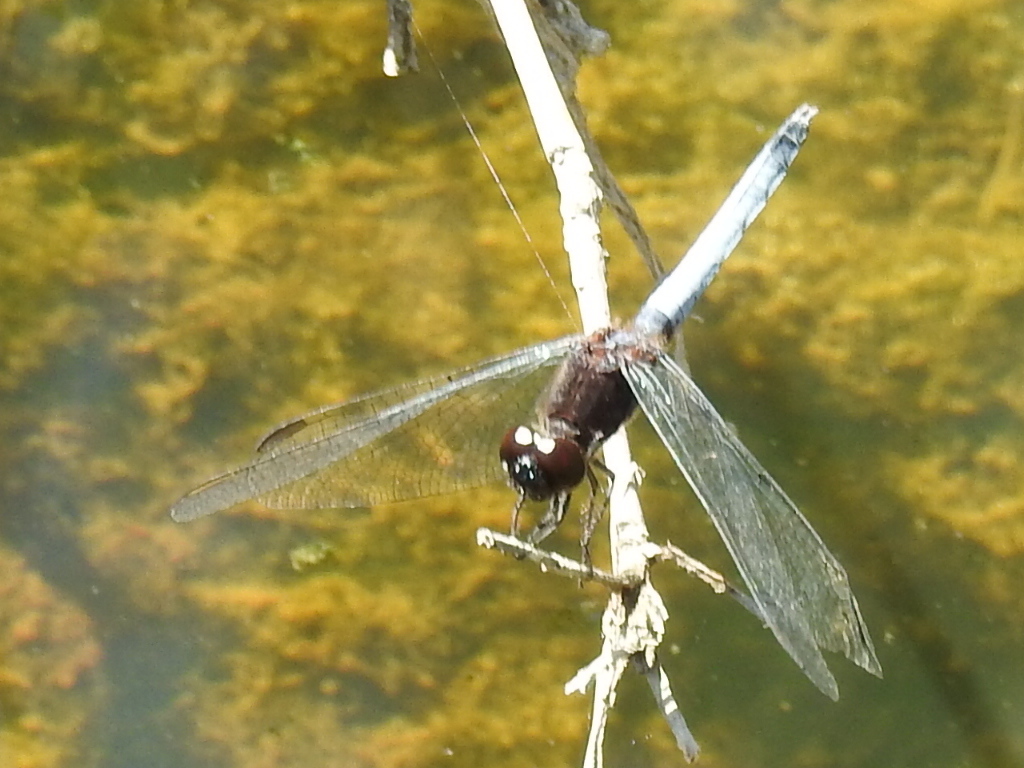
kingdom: Animalia
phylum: Arthropoda
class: Insecta
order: Odonata
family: Libellulidae
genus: Erythrodiplax
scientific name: Erythrodiplax basifusca
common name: Plateau dragonlet
